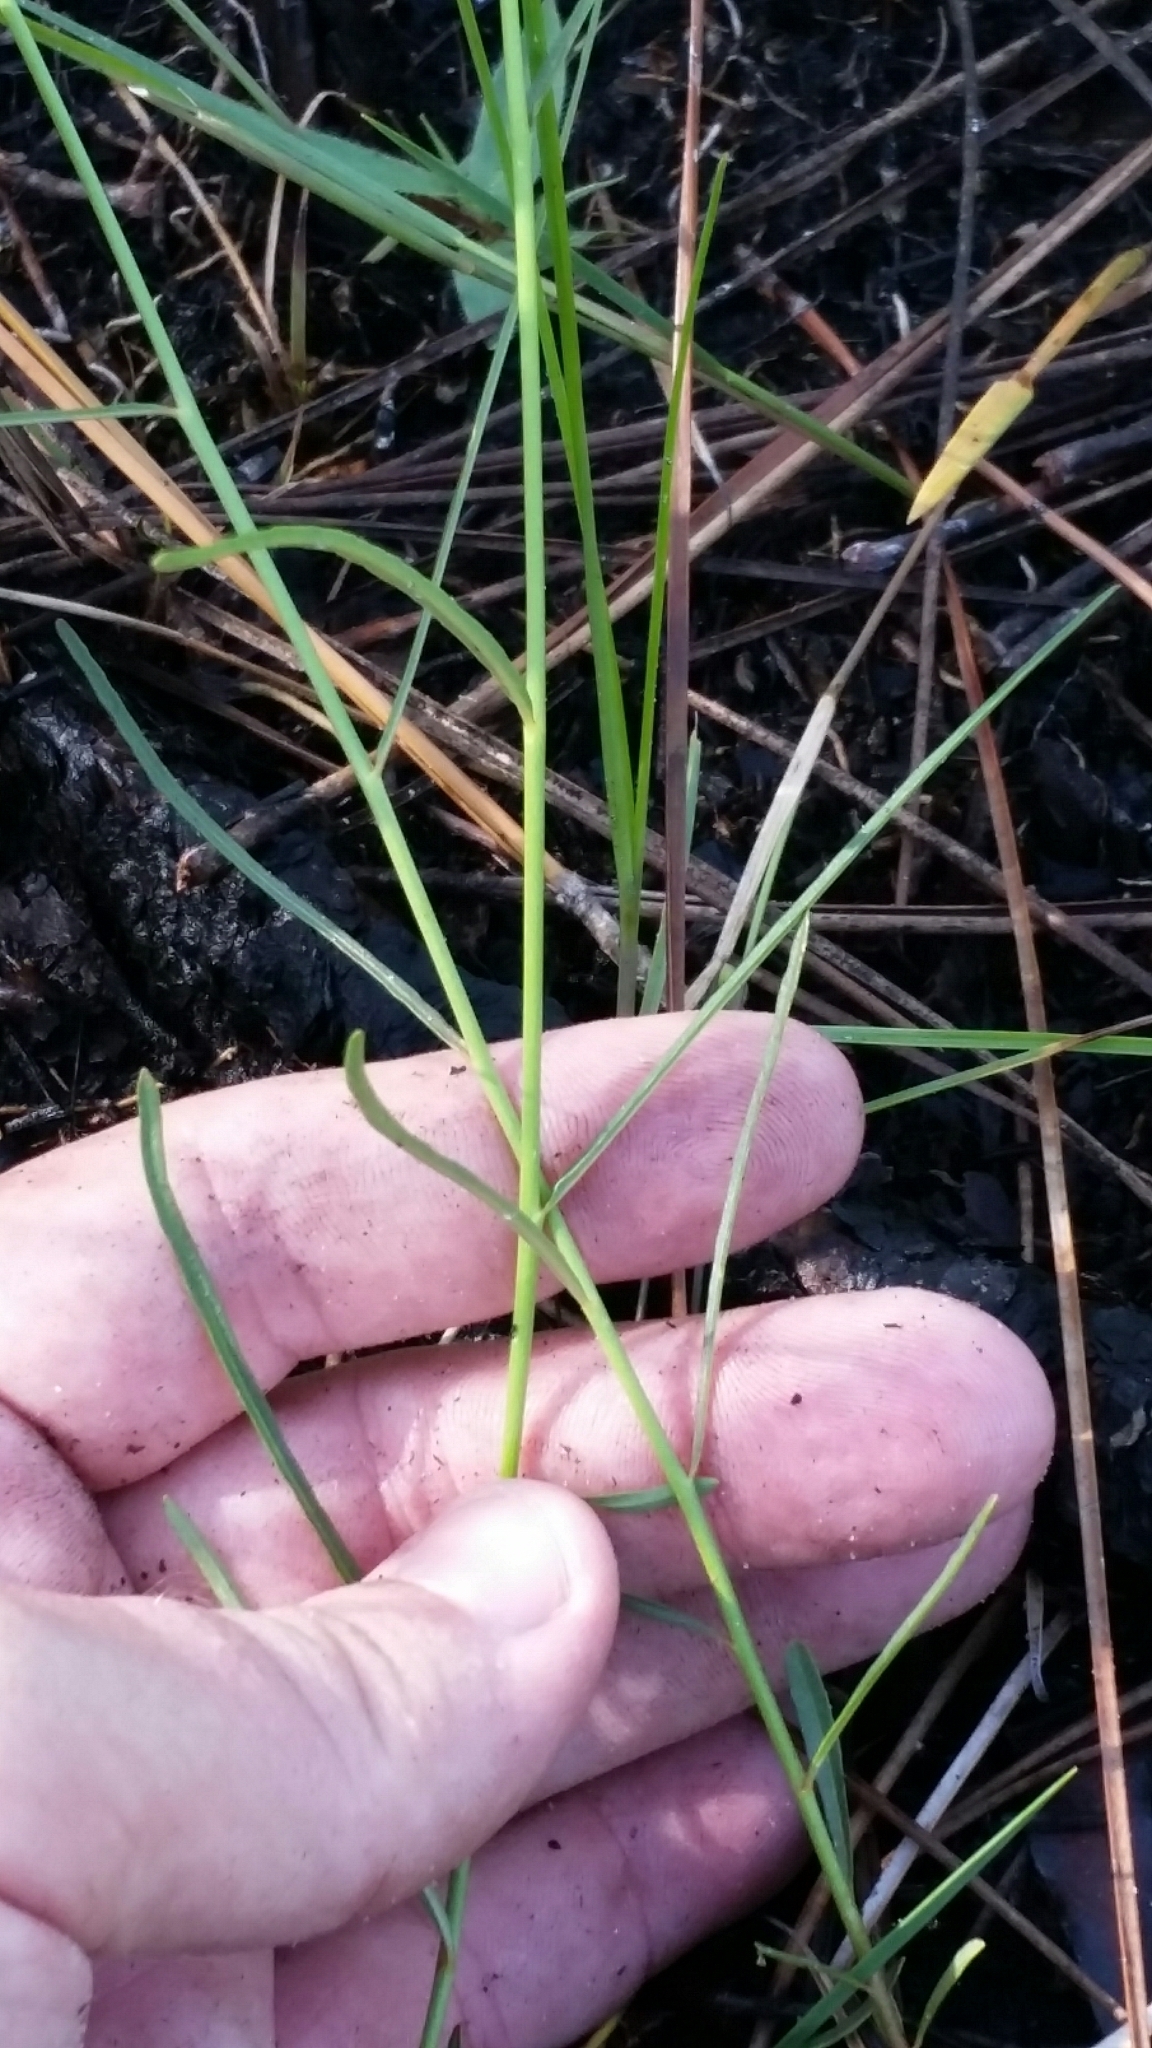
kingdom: Plantae
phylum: Tracheophyta
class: Magnoliopsida
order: Malpighiales
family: Turneraceae
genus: Piriqueta
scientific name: Piriqueta cistoides
